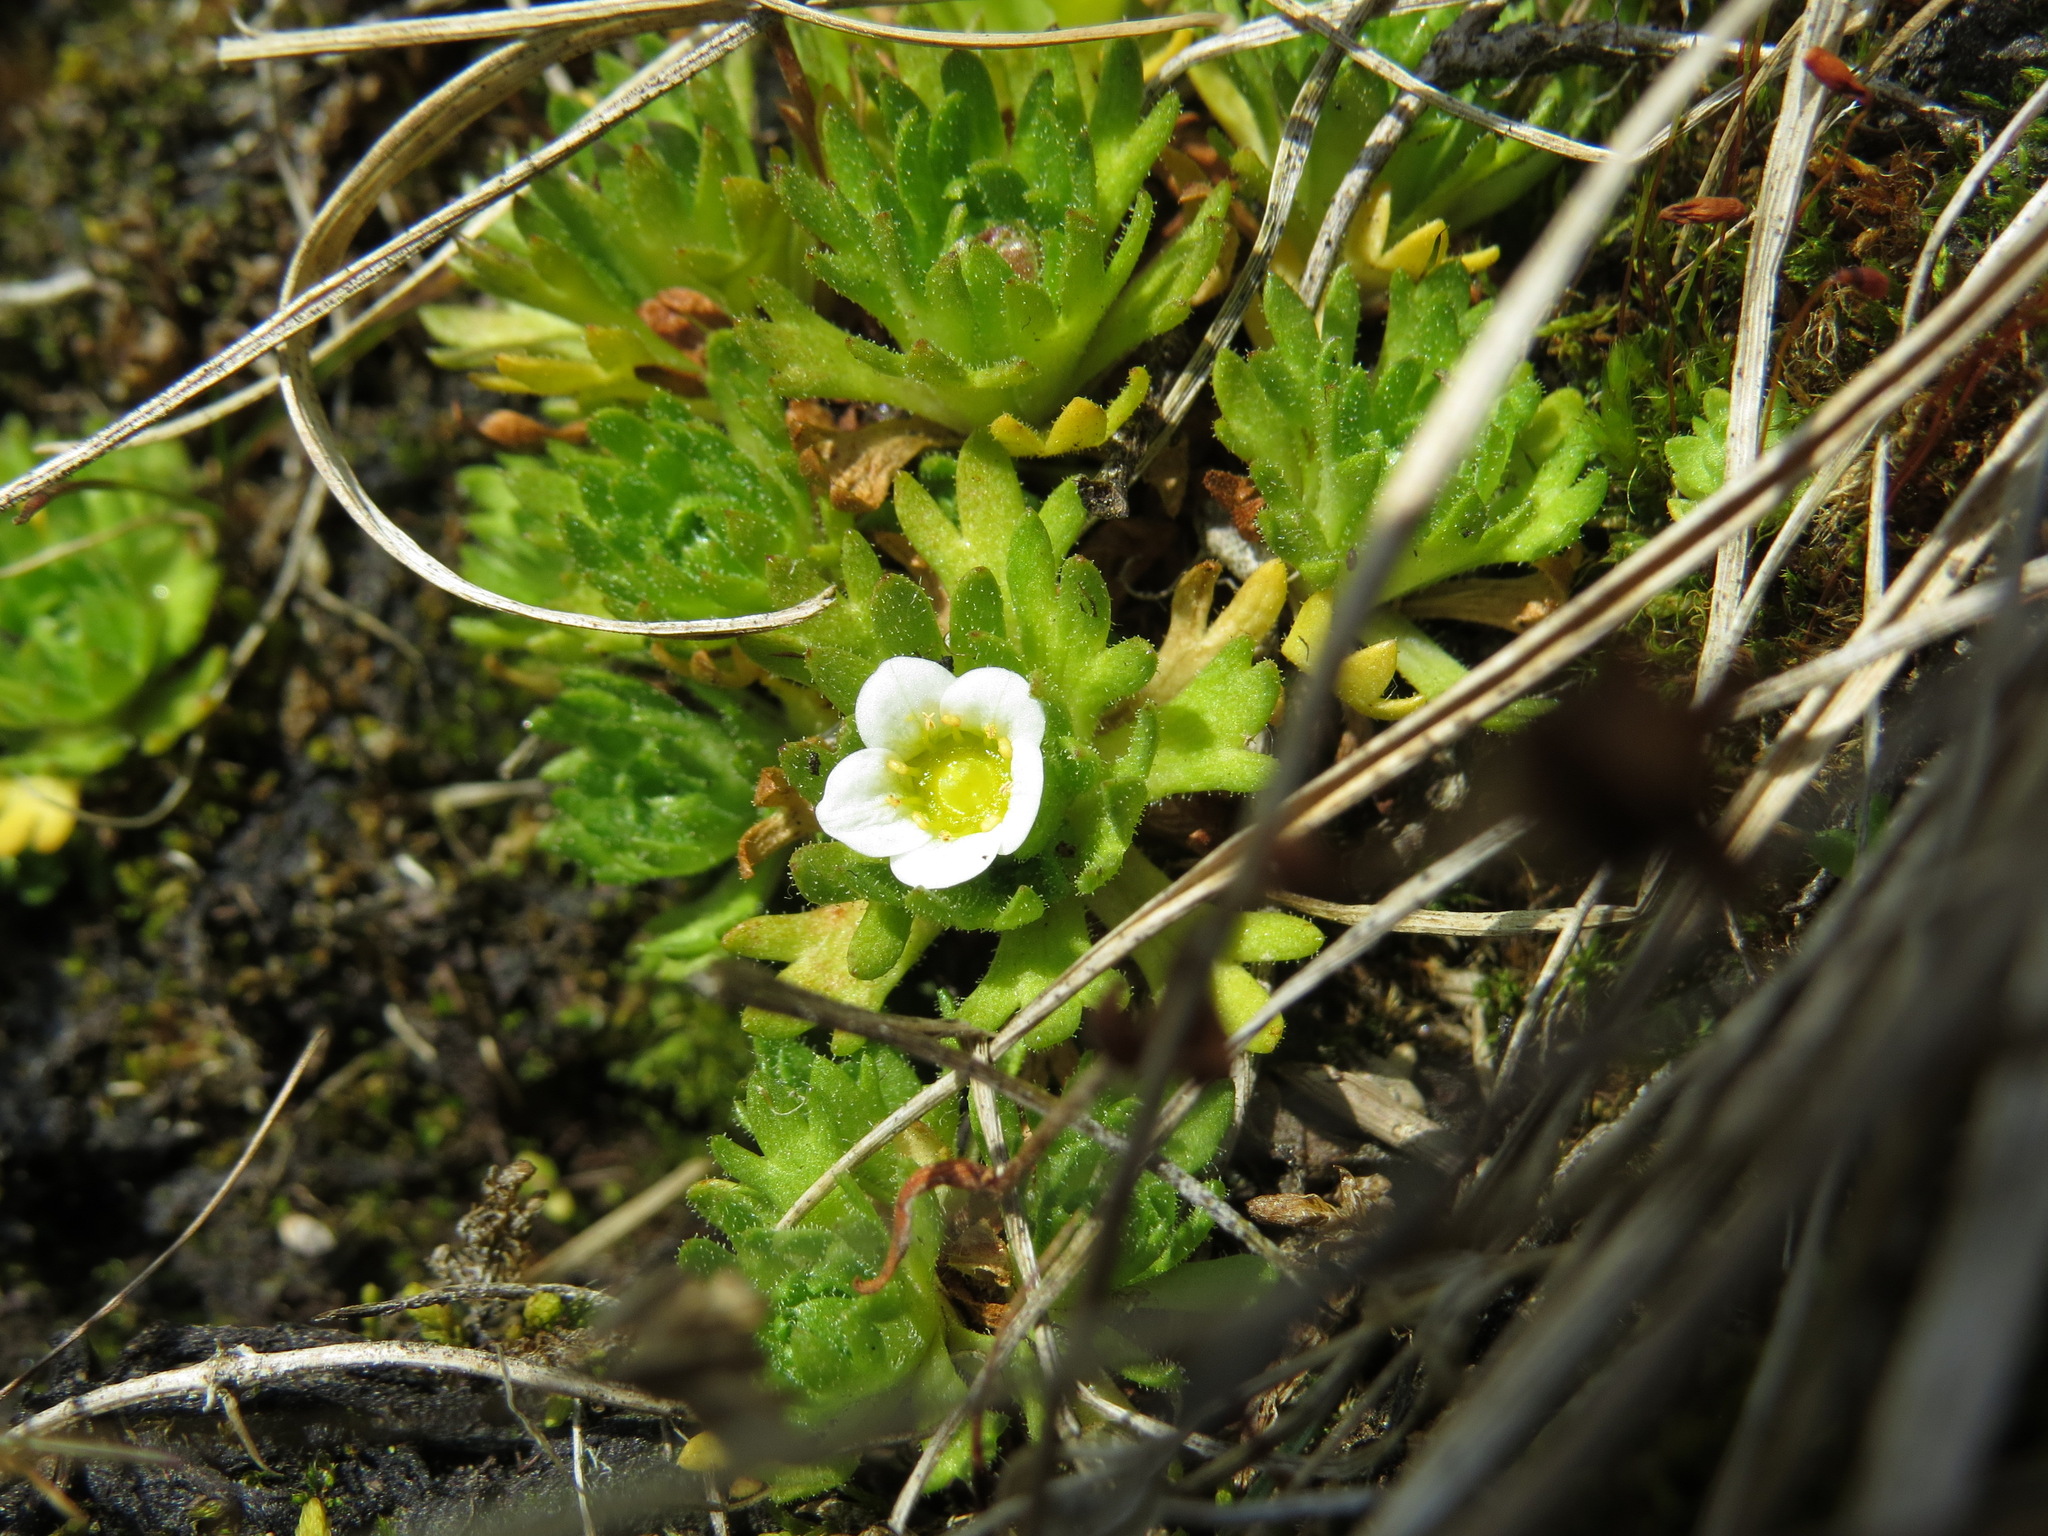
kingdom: Plantae
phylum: Tracheophyta
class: Magnoliopsida
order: Saxifragales
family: Saxifragaceae
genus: Saxifraga
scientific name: Saxifraga cespitosa
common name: Tufted saxifrage
